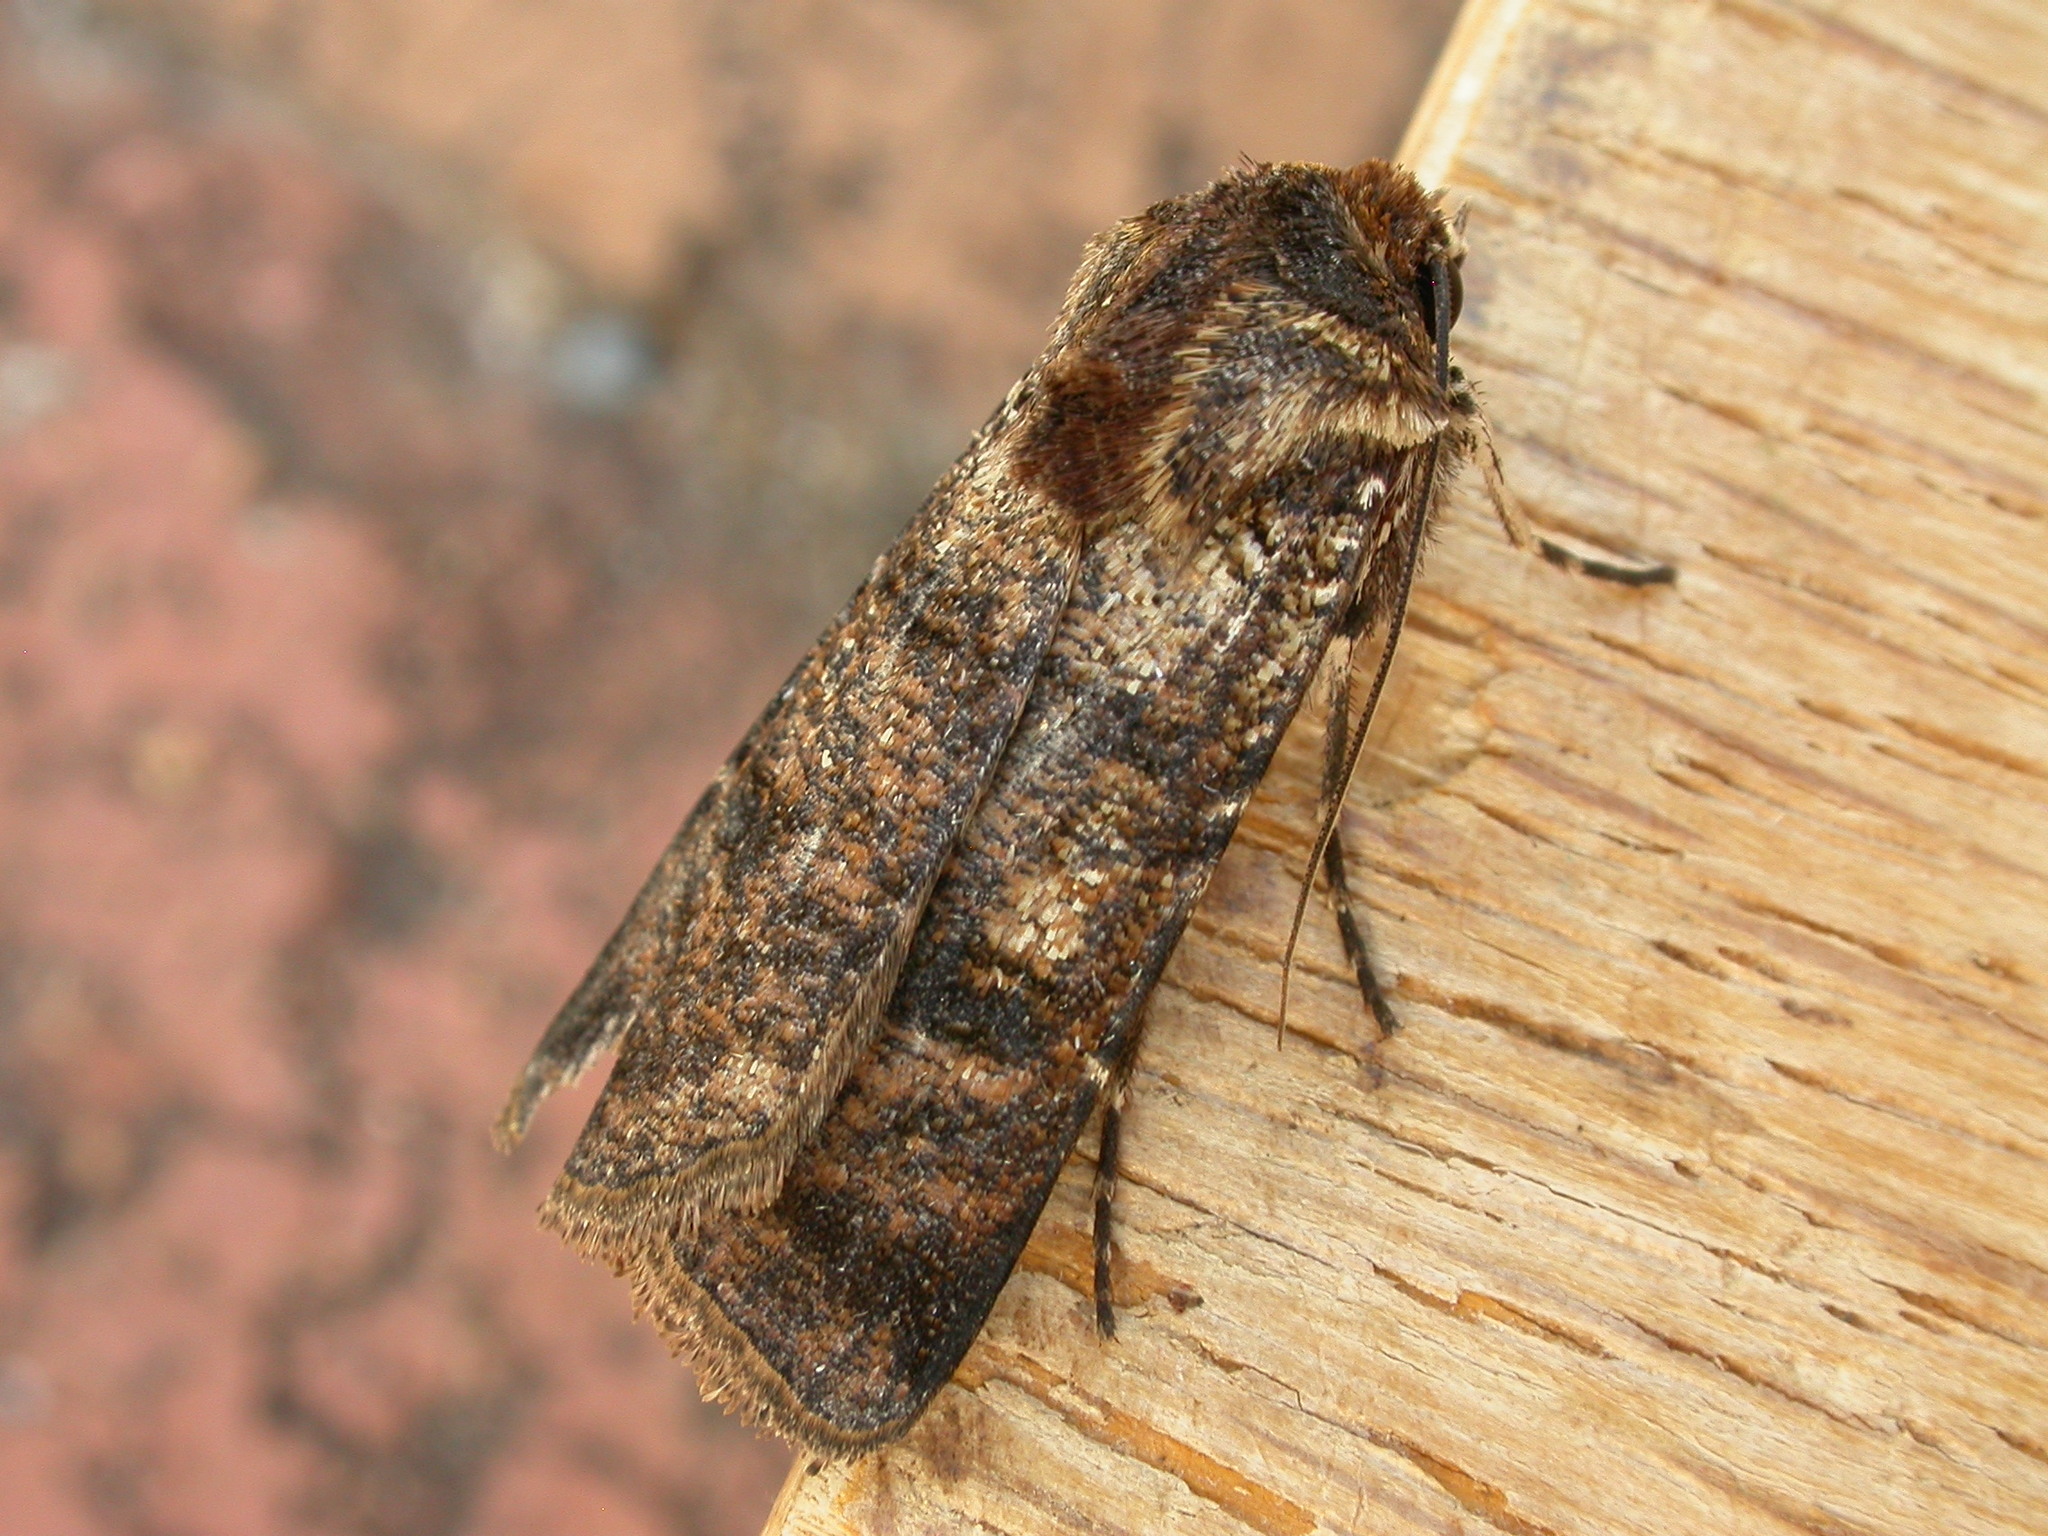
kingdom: Animalia
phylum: Arthropoda
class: Insecta
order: Lepidoptera
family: Noctuidae
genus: Agrotis
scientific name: Agrotis porphyricollis
